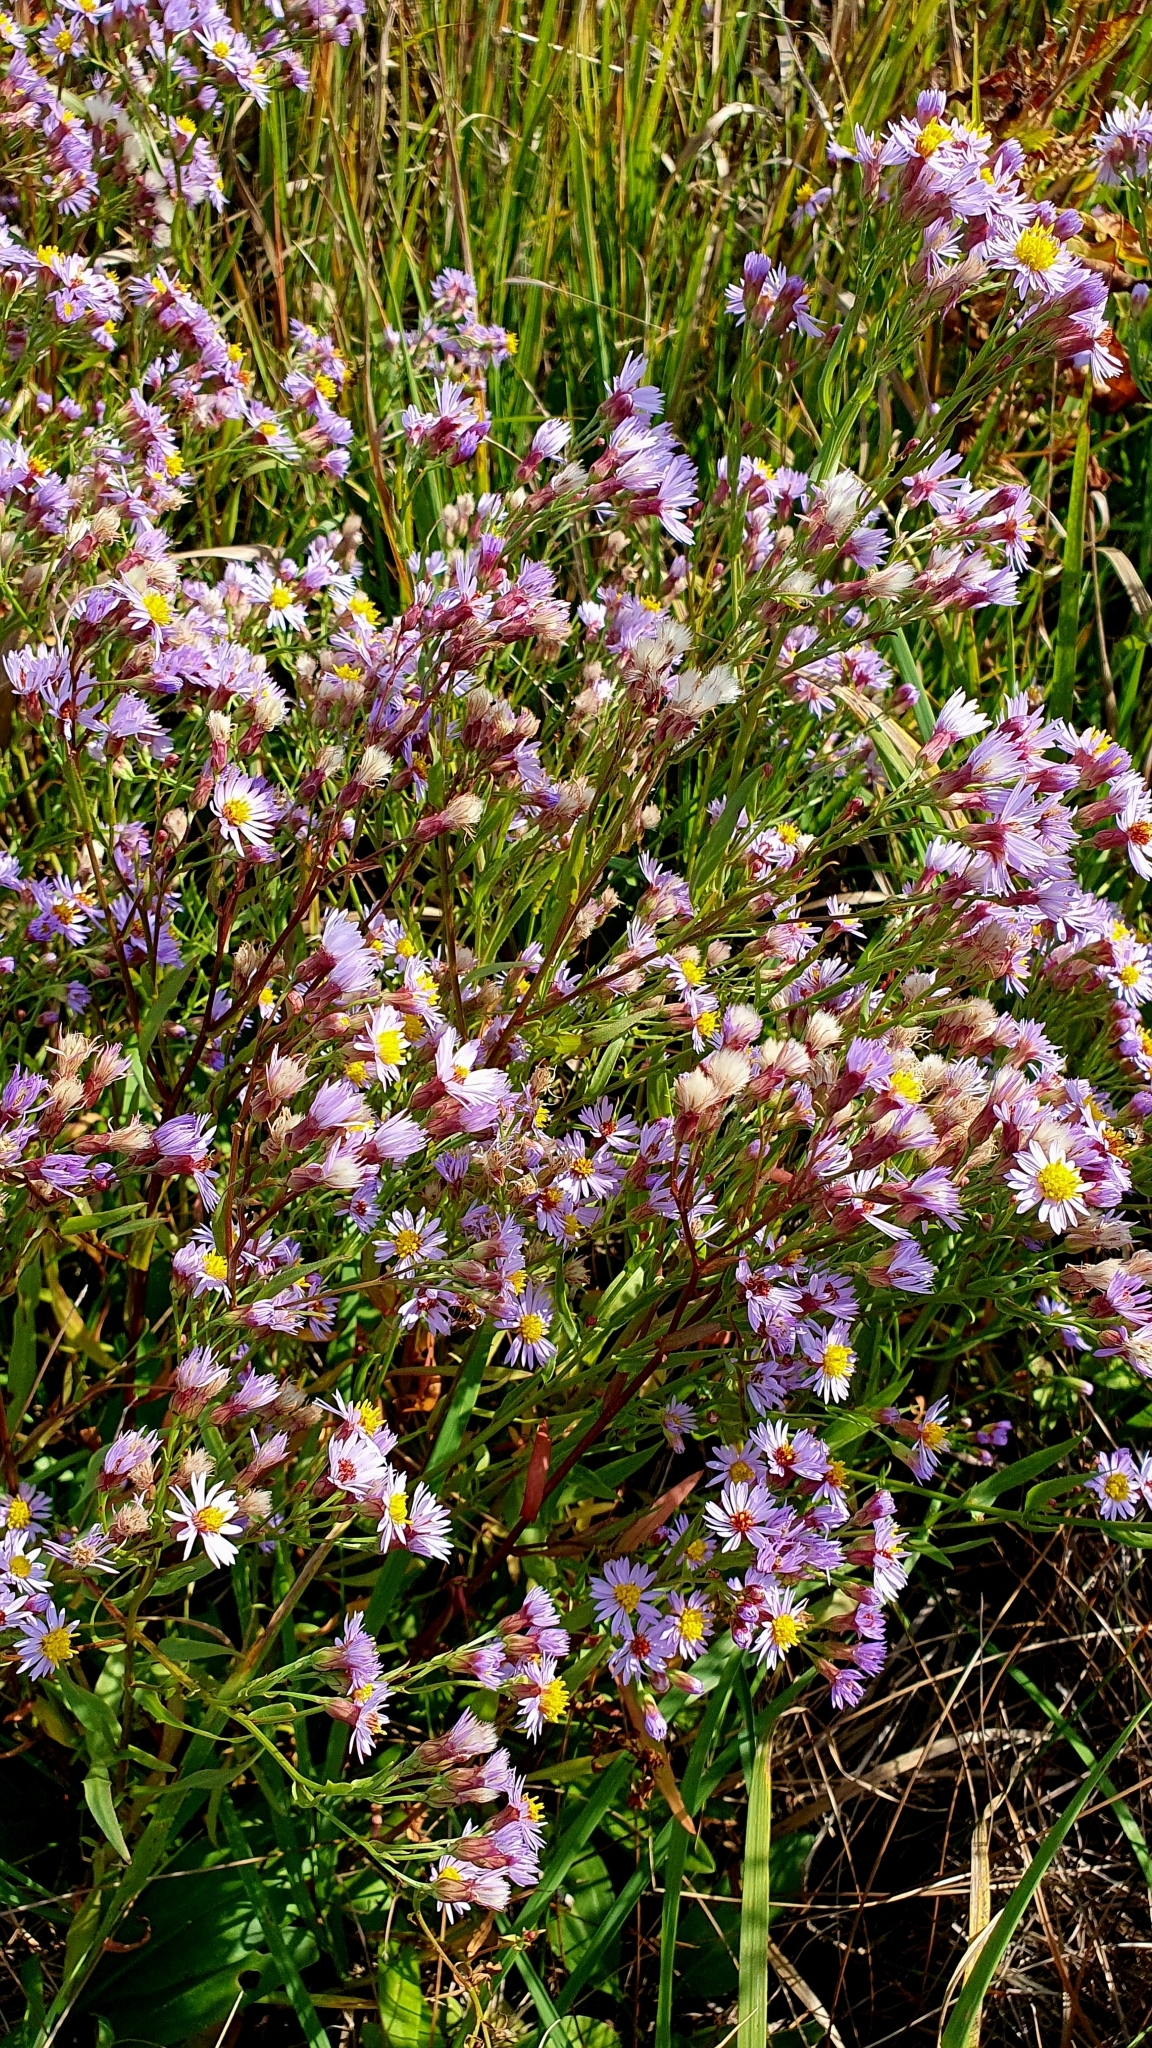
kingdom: Plantae
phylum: Tracheophyta
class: Magnoliopsida
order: Asterales
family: Asteraceae
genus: Tripolium
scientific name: Tripolium pannonicum
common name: Sea aster
